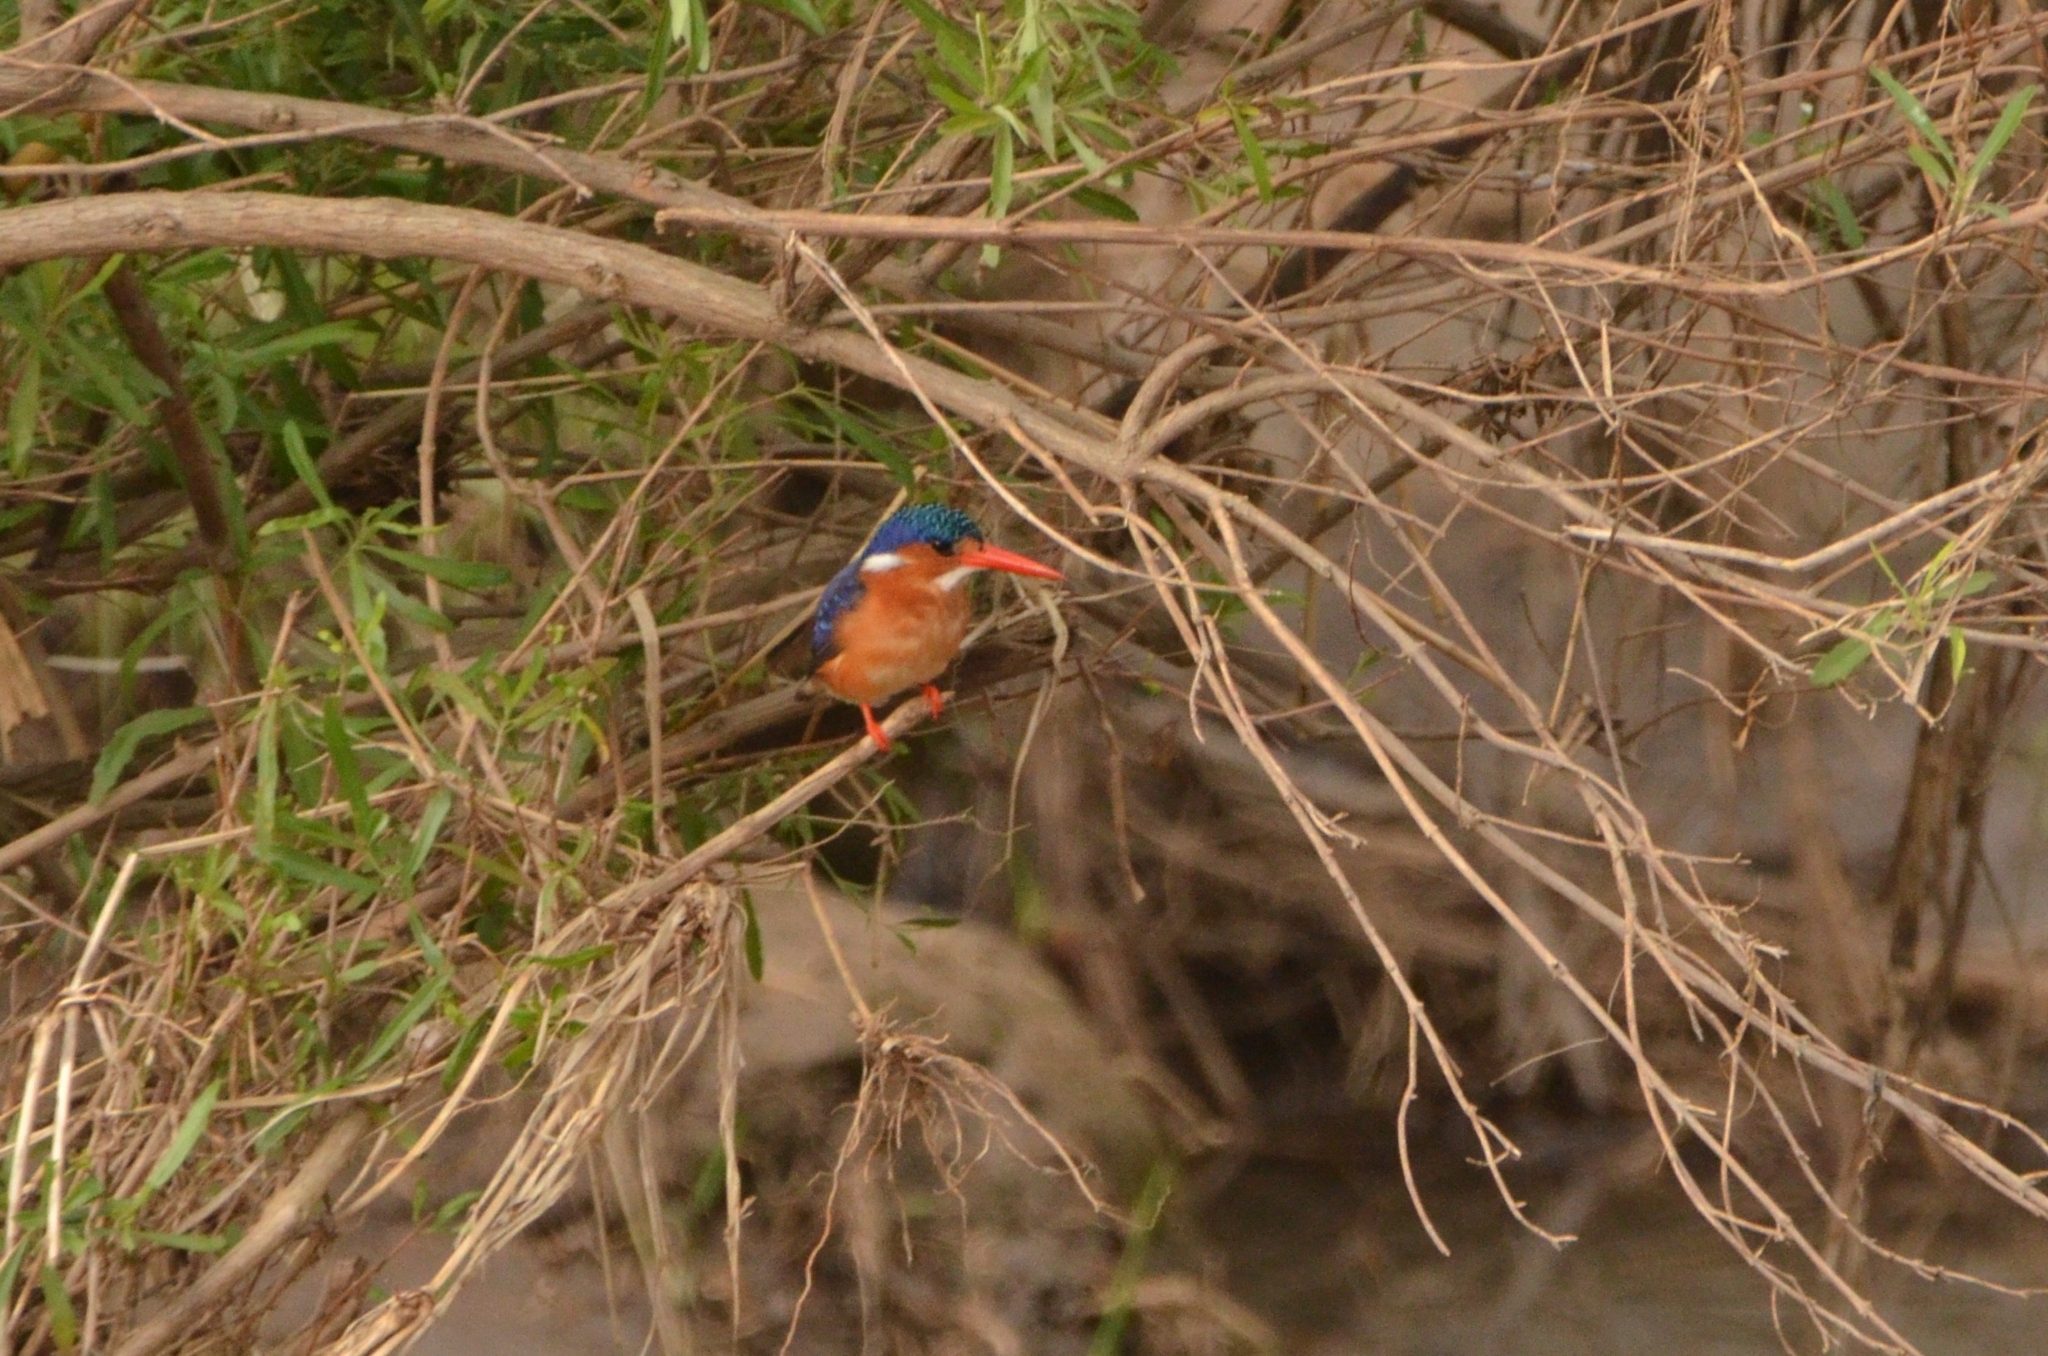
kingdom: Animalia
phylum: Chordata
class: Aves
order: Coraciiformes
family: Alcedinidae
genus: Corythornis
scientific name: Corythornis cristatus
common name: Malachite kingfisher
